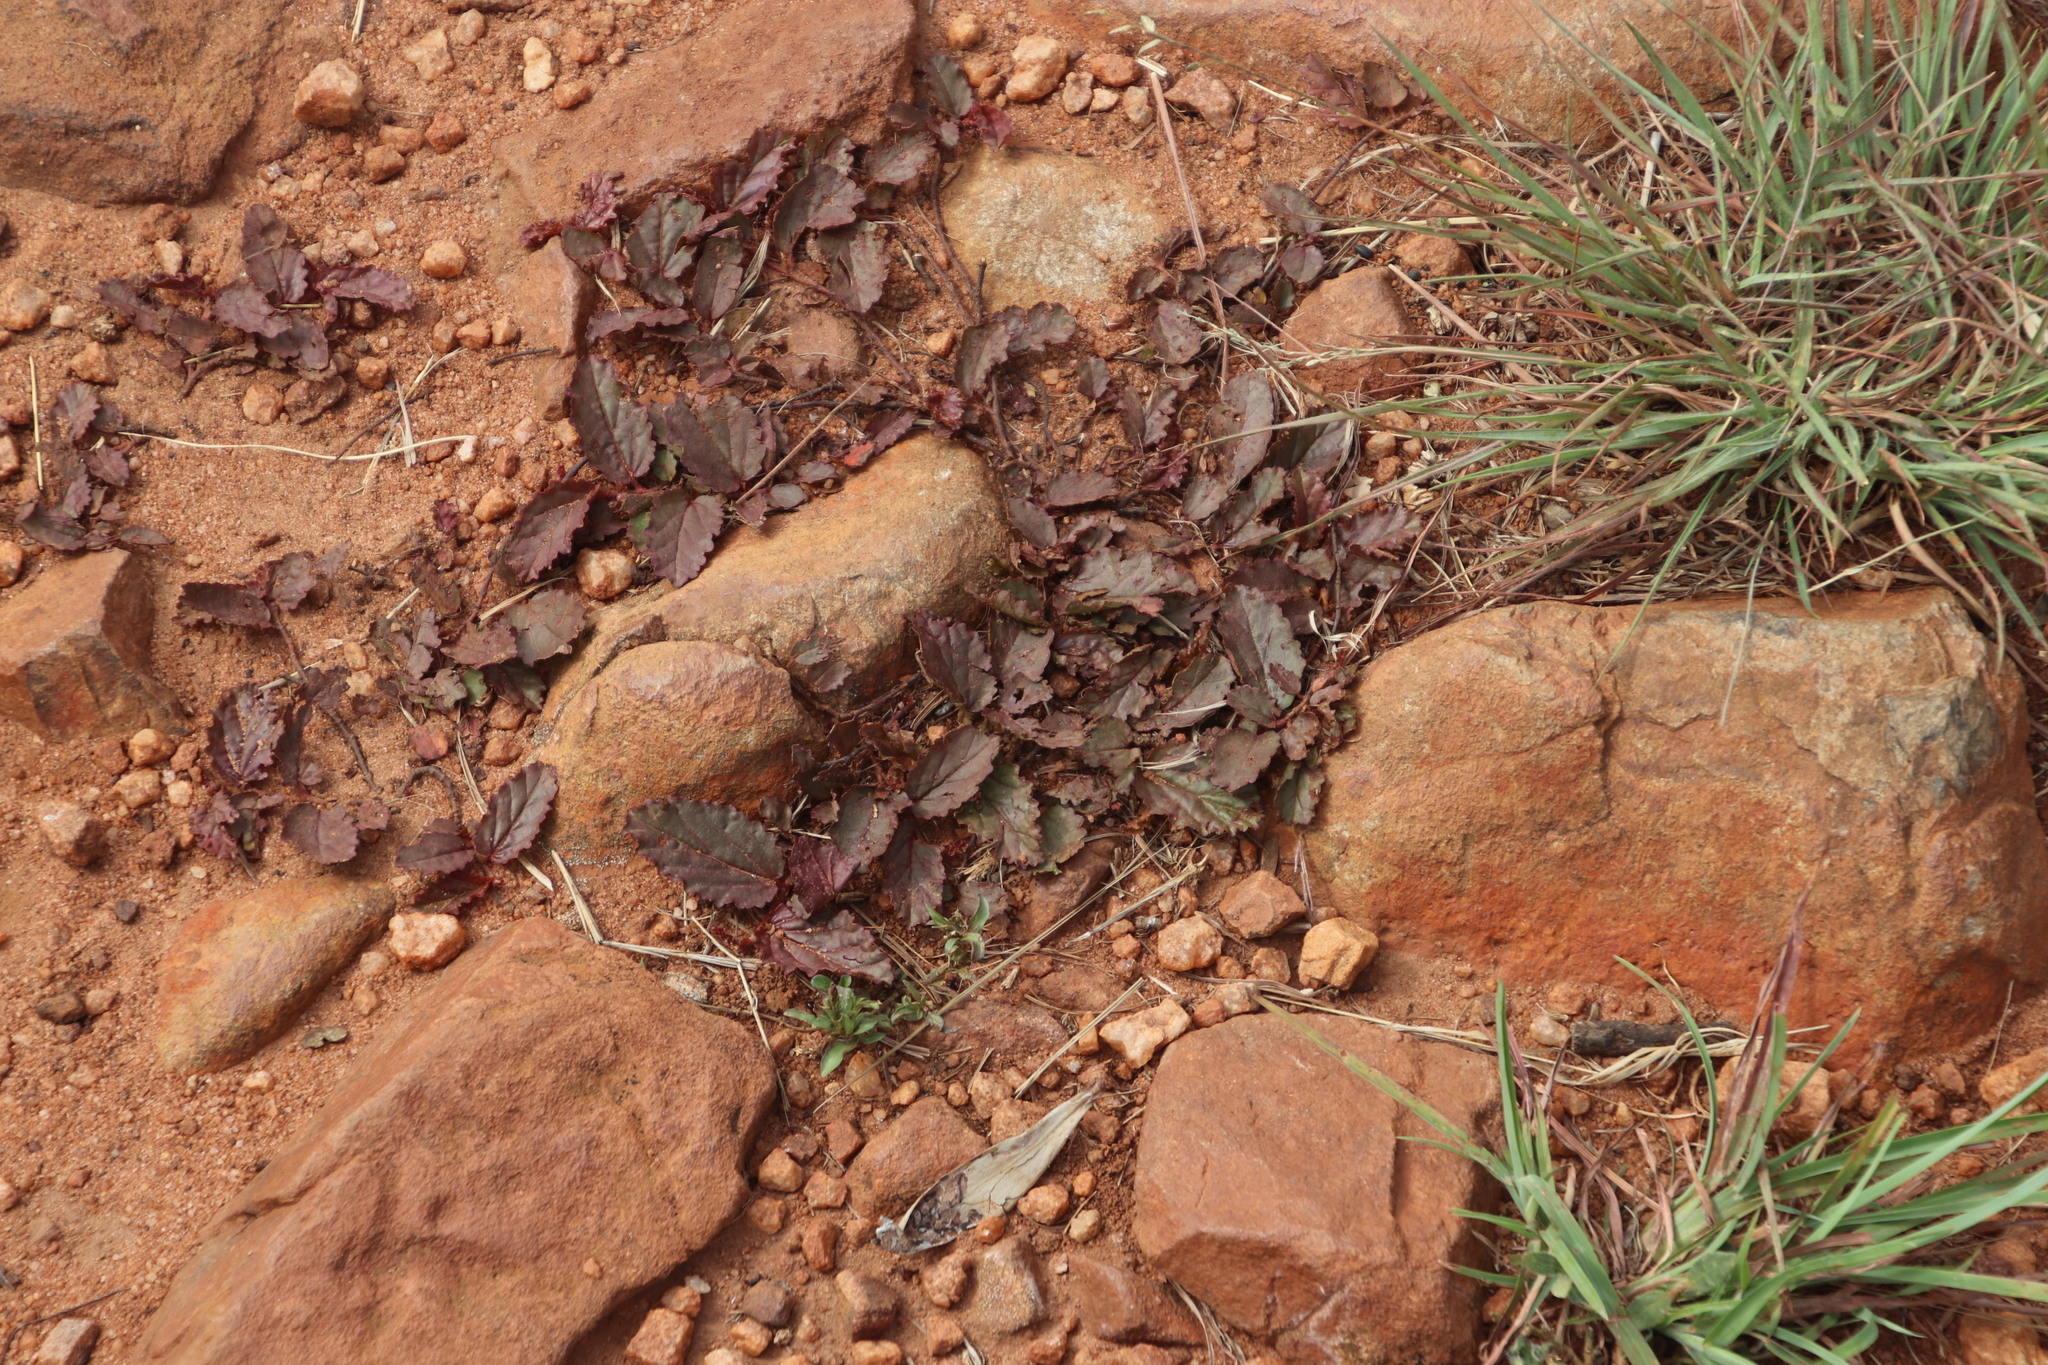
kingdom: Plantae
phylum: Tracheophyta
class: Magnoliopsida
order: Malvales
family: Malvaceae
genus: Hermannia
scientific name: Hermannia depressa
